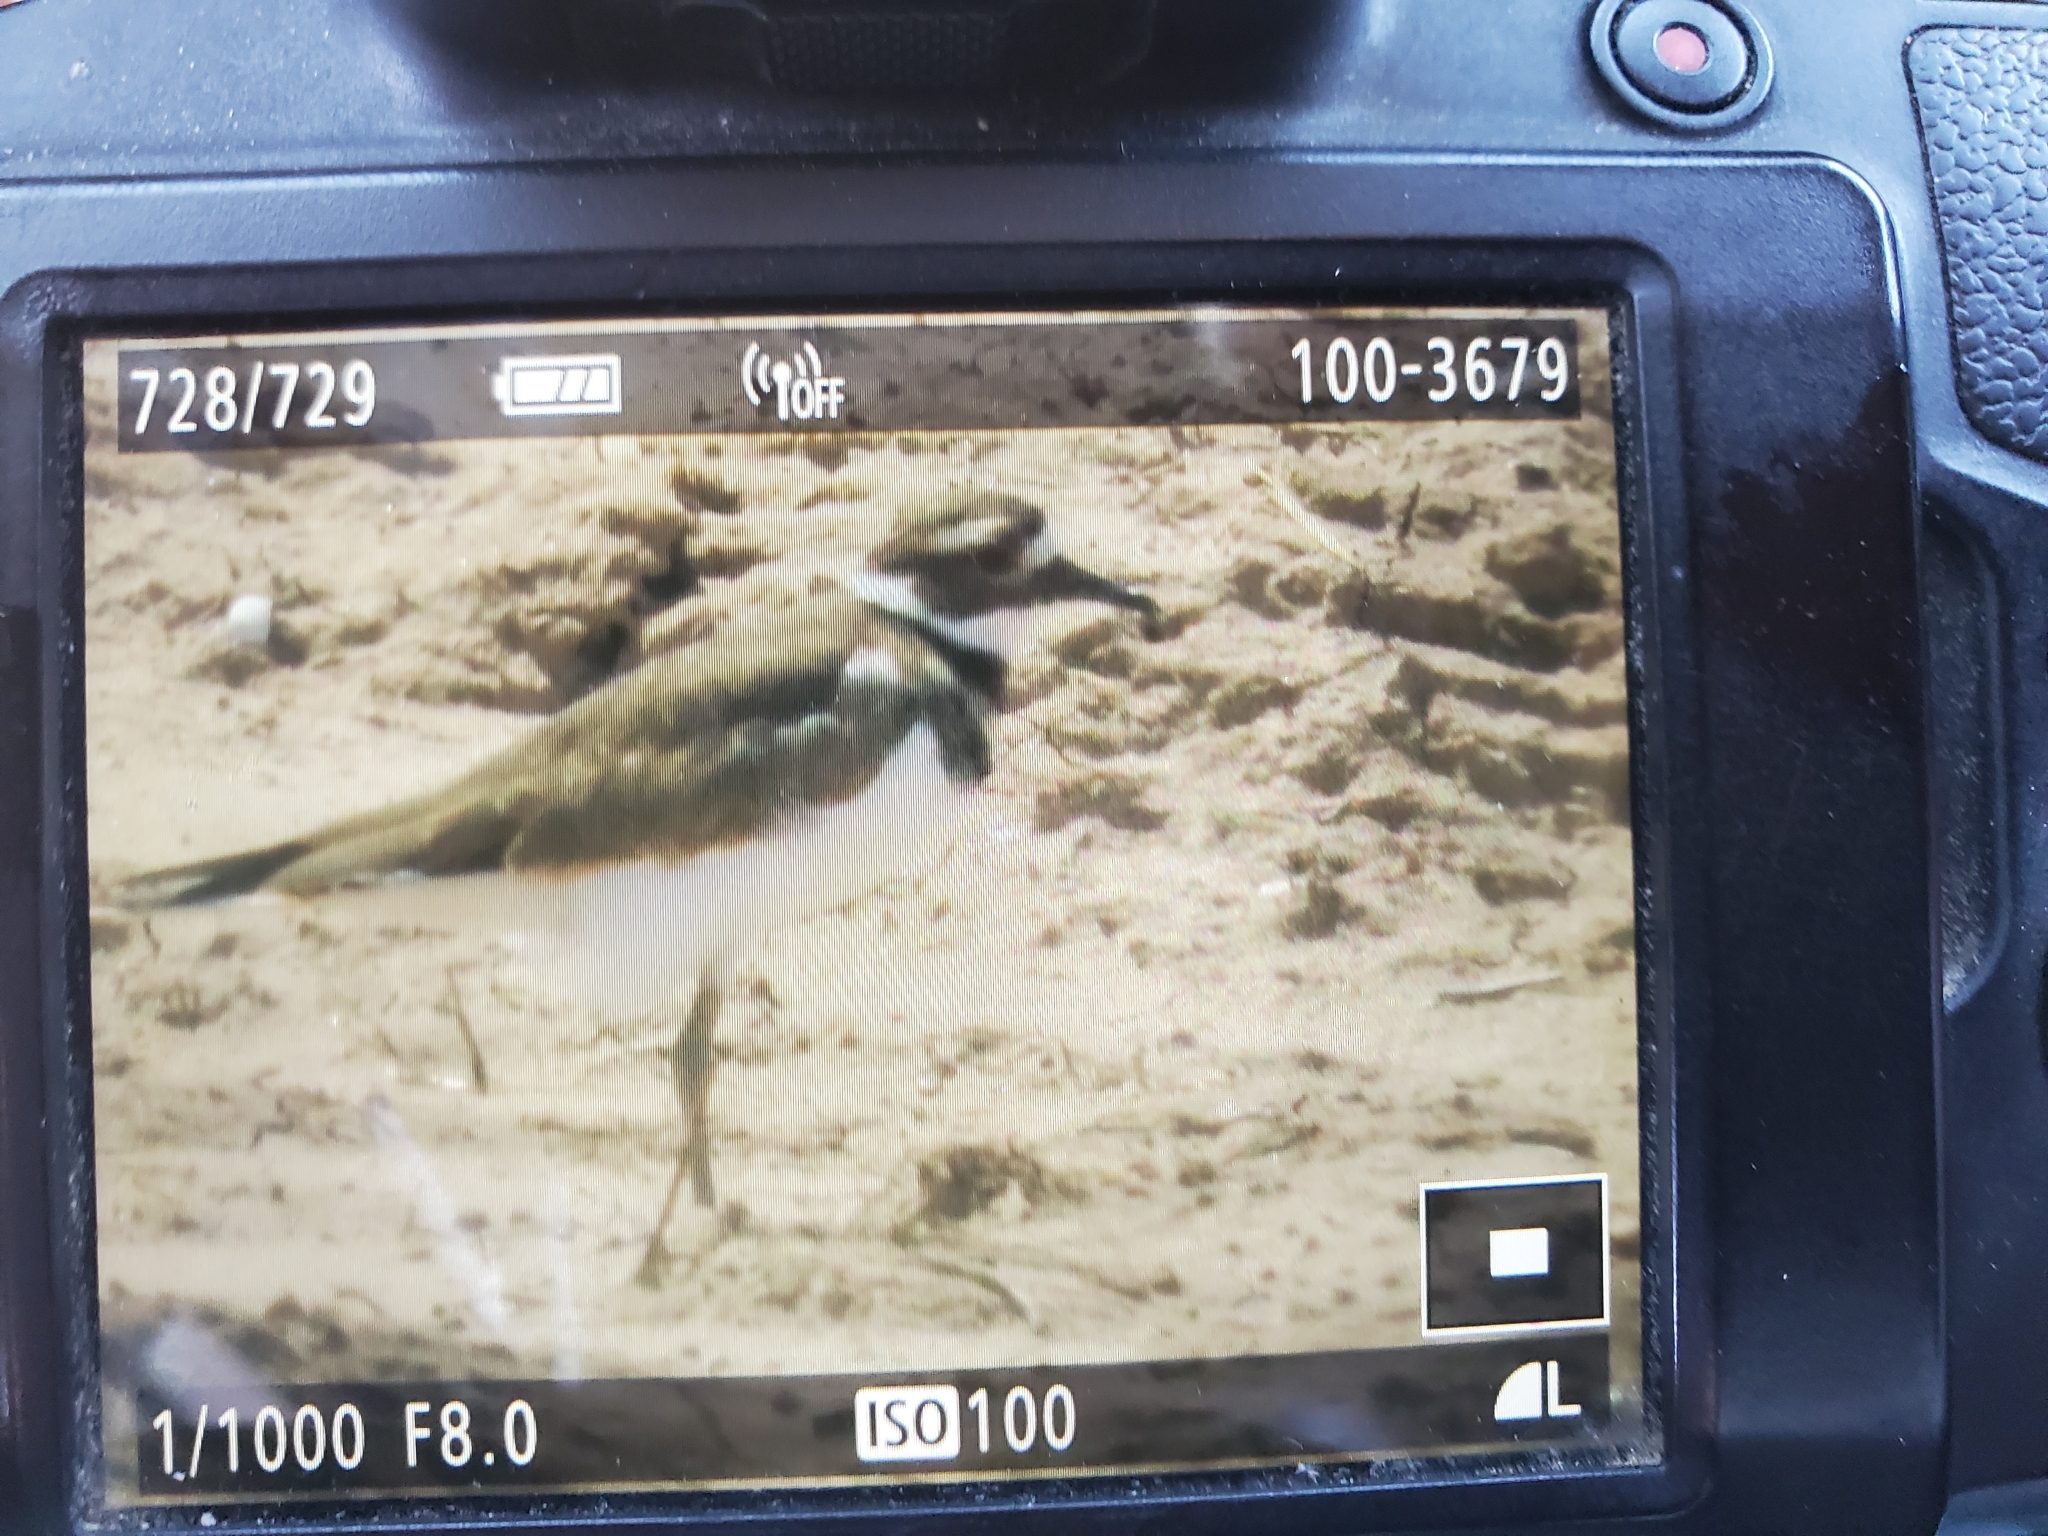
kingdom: Animalia
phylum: Chordata
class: Aves
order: Charadriiformes
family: Charadriidae
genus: Charadrius
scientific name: Charadrius vociferus
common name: Killdeer
